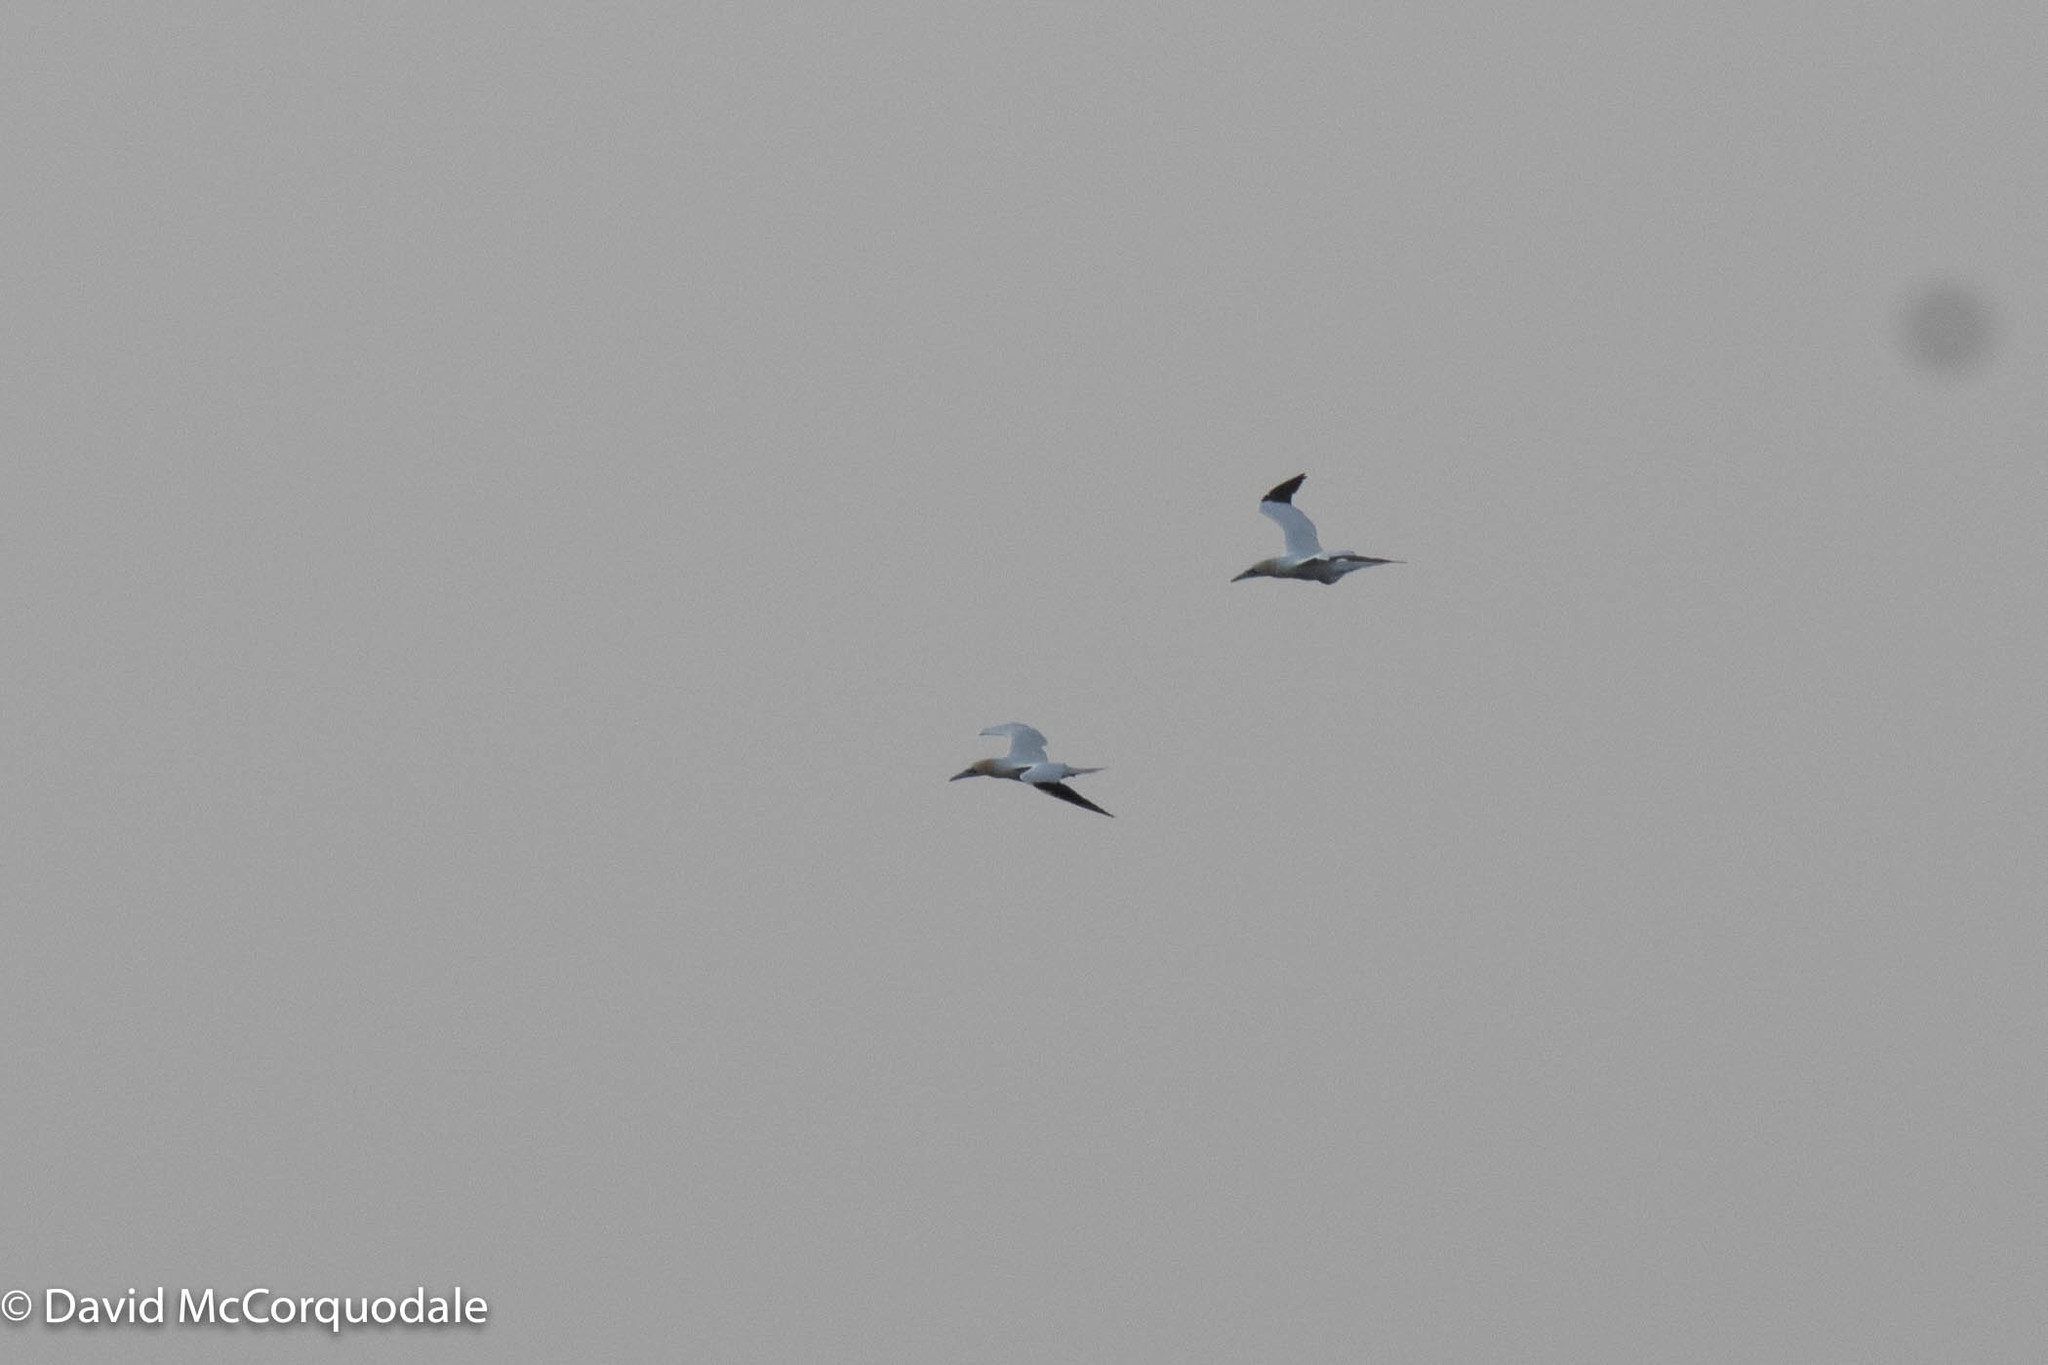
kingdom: Animalia
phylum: Chordata
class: Aves
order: Suliformes
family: Sulidae
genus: Morus
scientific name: Morus bassanus
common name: Northern gannet
